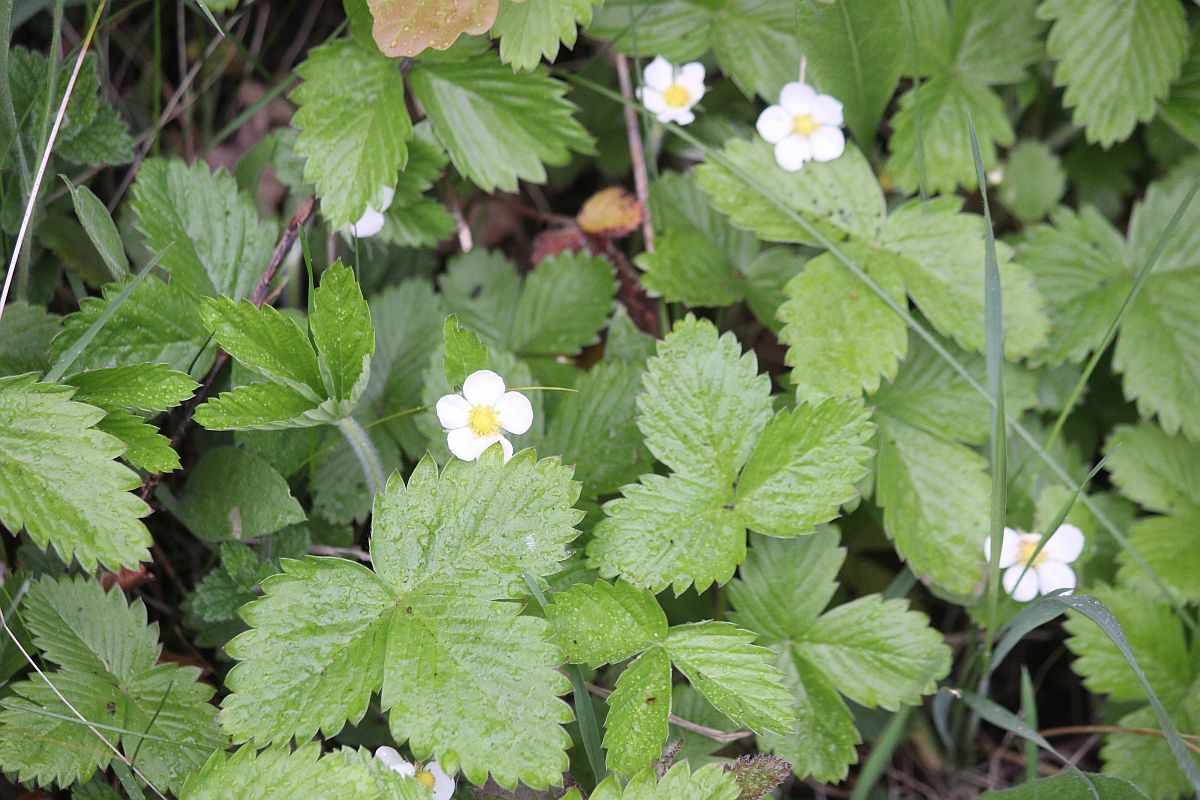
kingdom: Plantae
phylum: Tracheophyta
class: Magnoliopsida
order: Rosales
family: Rosaceae
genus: Fragaria
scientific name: Fragaria vesca
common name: Wild strawberry
